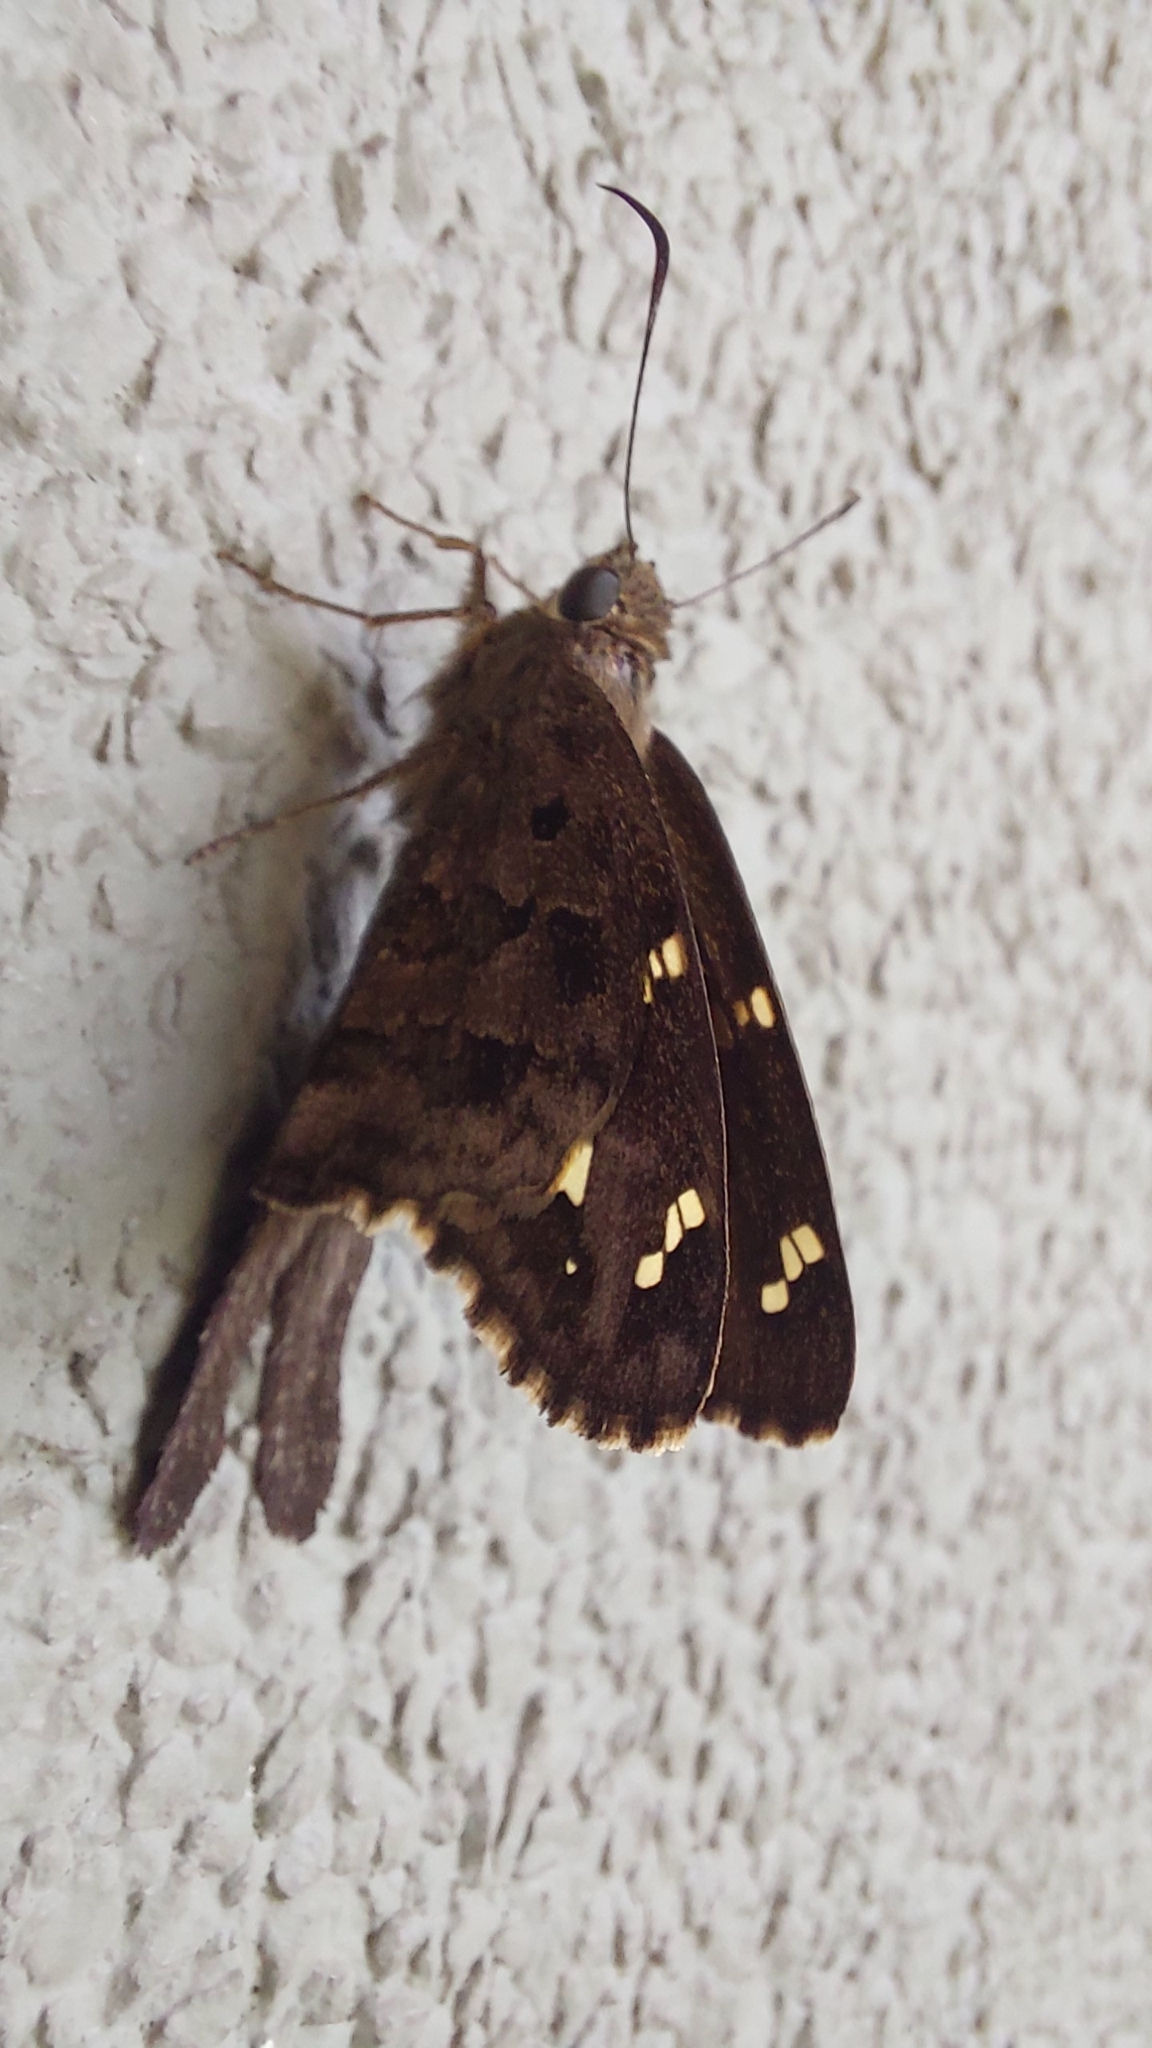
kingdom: Animalia
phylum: Arthropoda
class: Insecta
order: Lepidoptera
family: Hesperiidae
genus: Thorybes
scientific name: Thorybes
